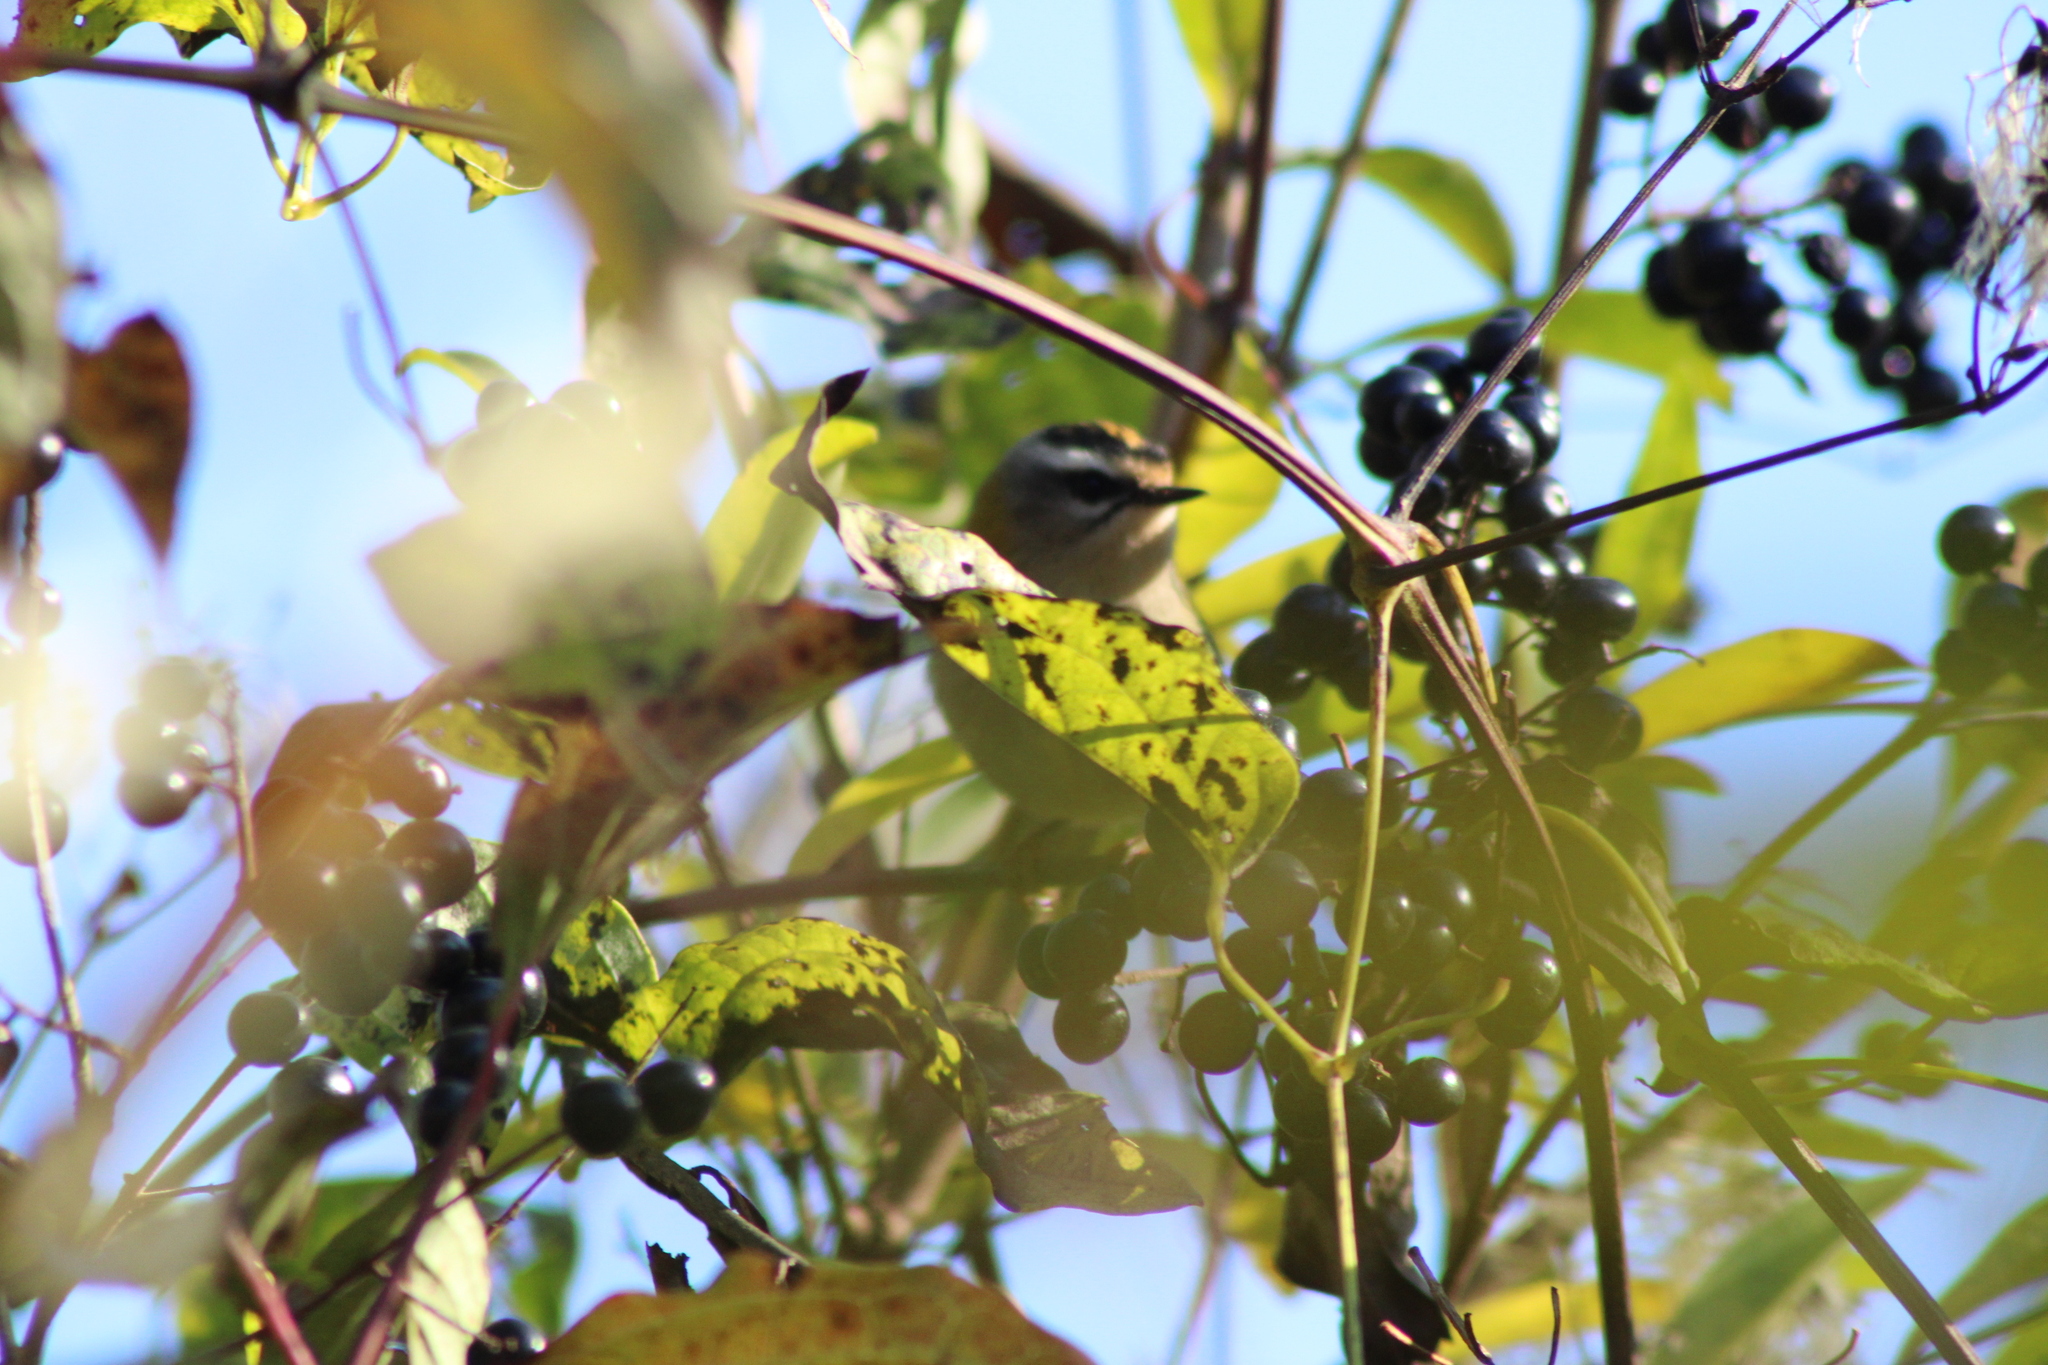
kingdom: Animalia
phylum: Chordata
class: Aves
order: Passeriformes
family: Regulidae
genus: Regulus
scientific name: Regulus ignicapilla
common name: Firecrest
